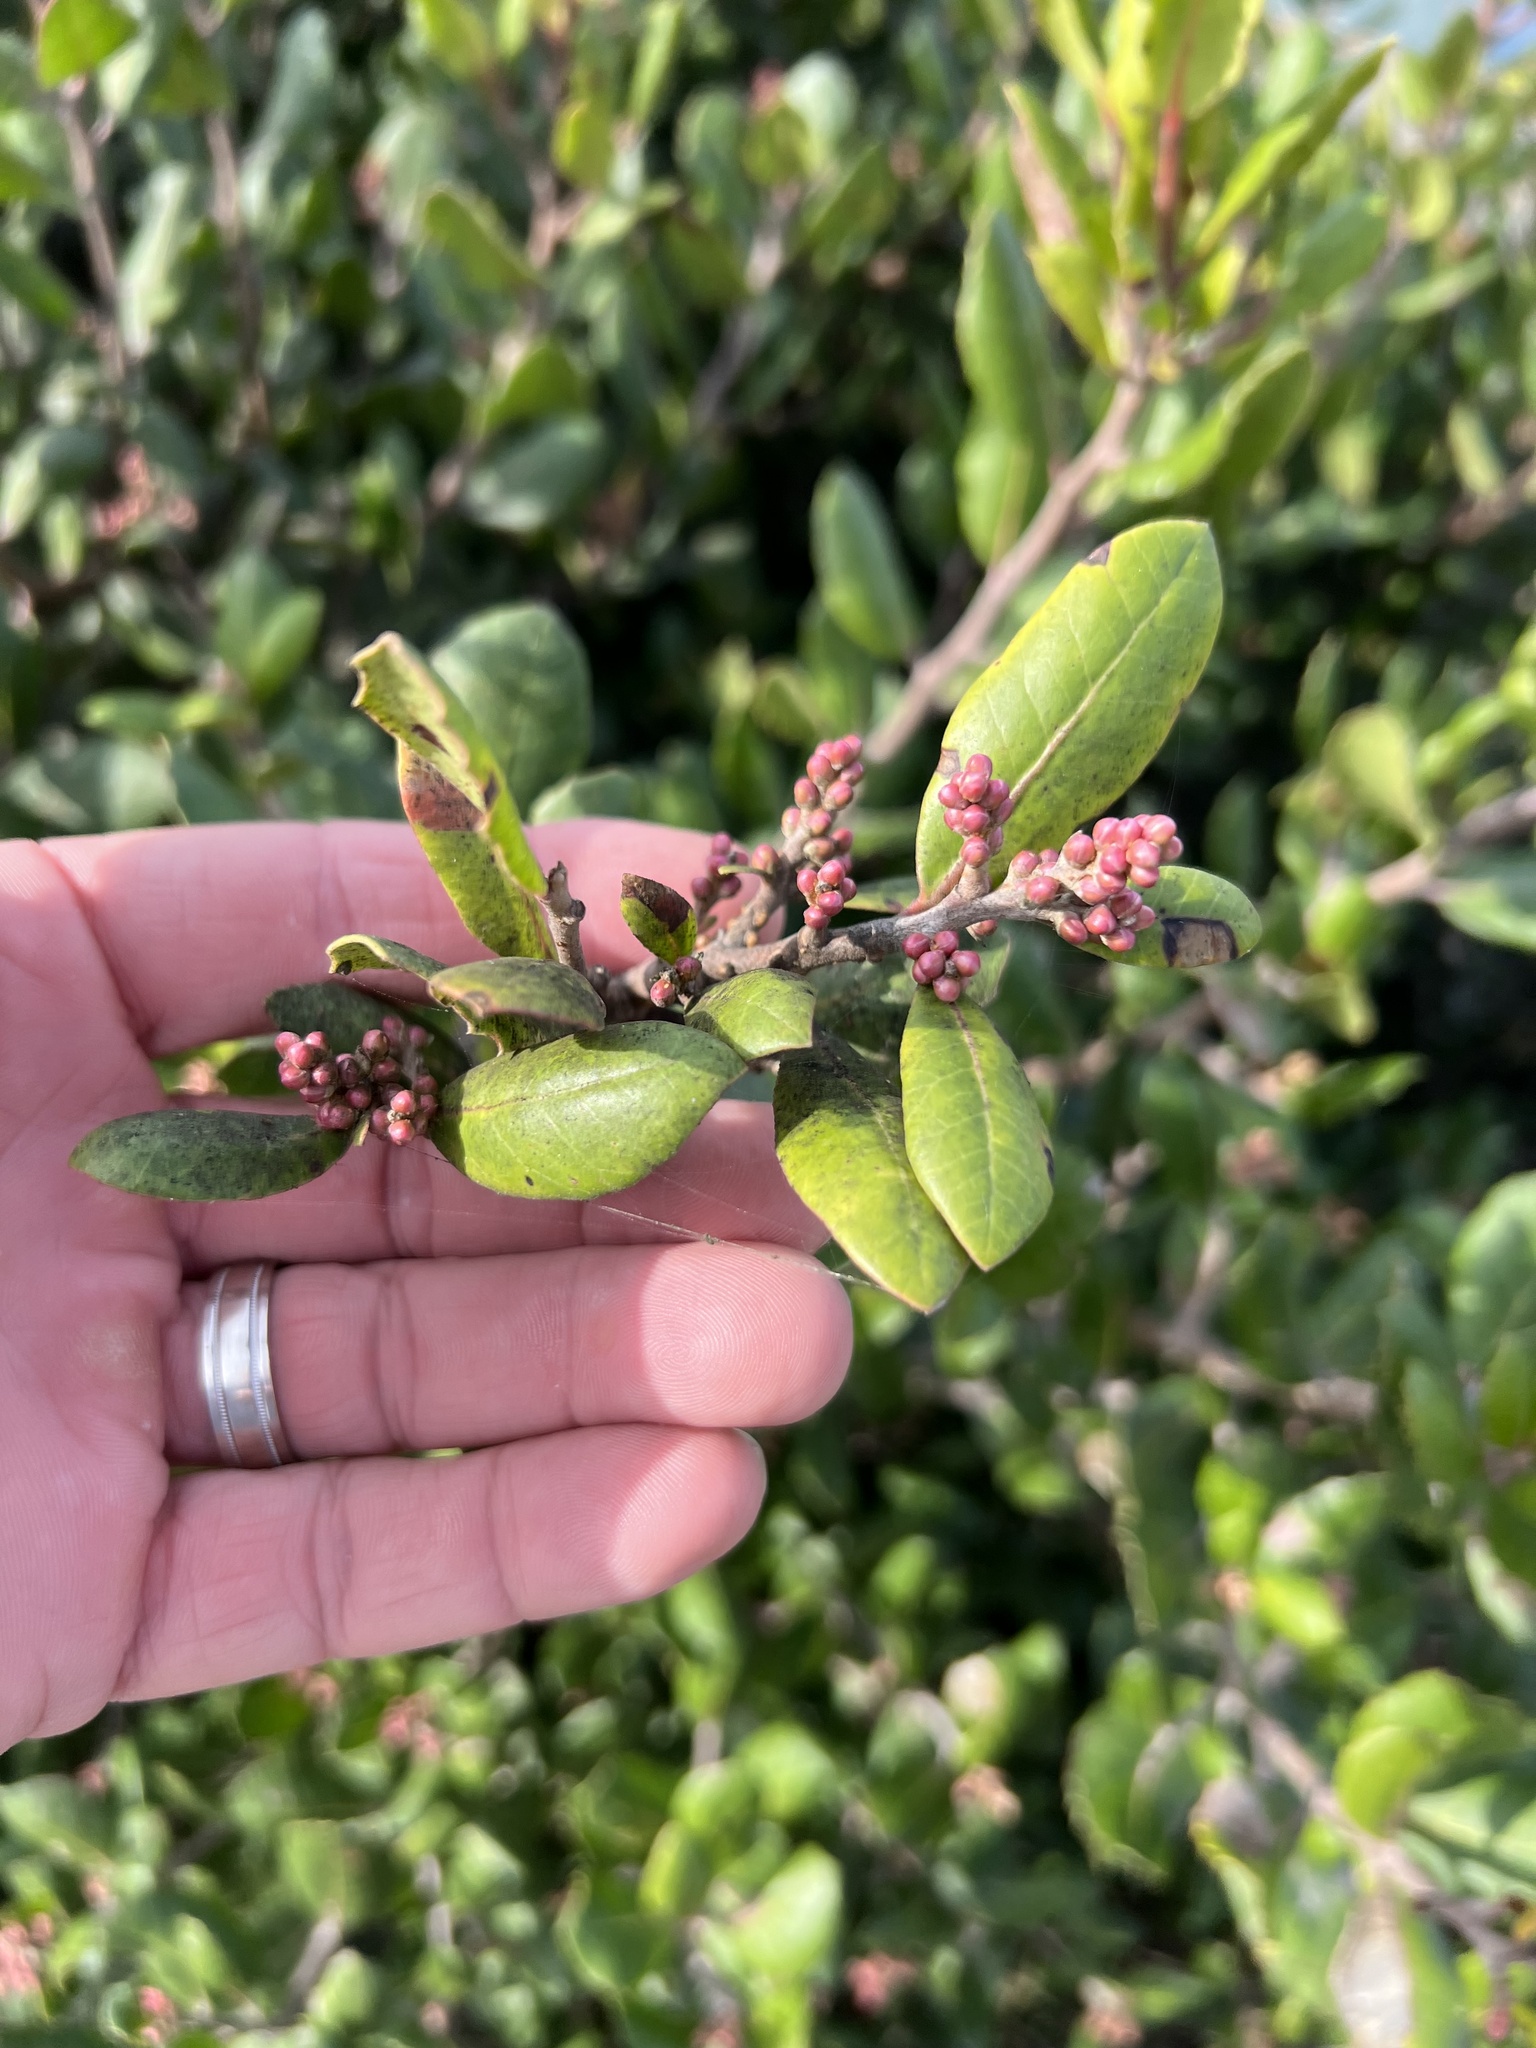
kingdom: Plantae
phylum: Tracheophyta
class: Magnoliopsida
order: Sapindales
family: Anacardiaceae
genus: Rhus
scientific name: Rhus integrifolia
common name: Lemonade sumac
